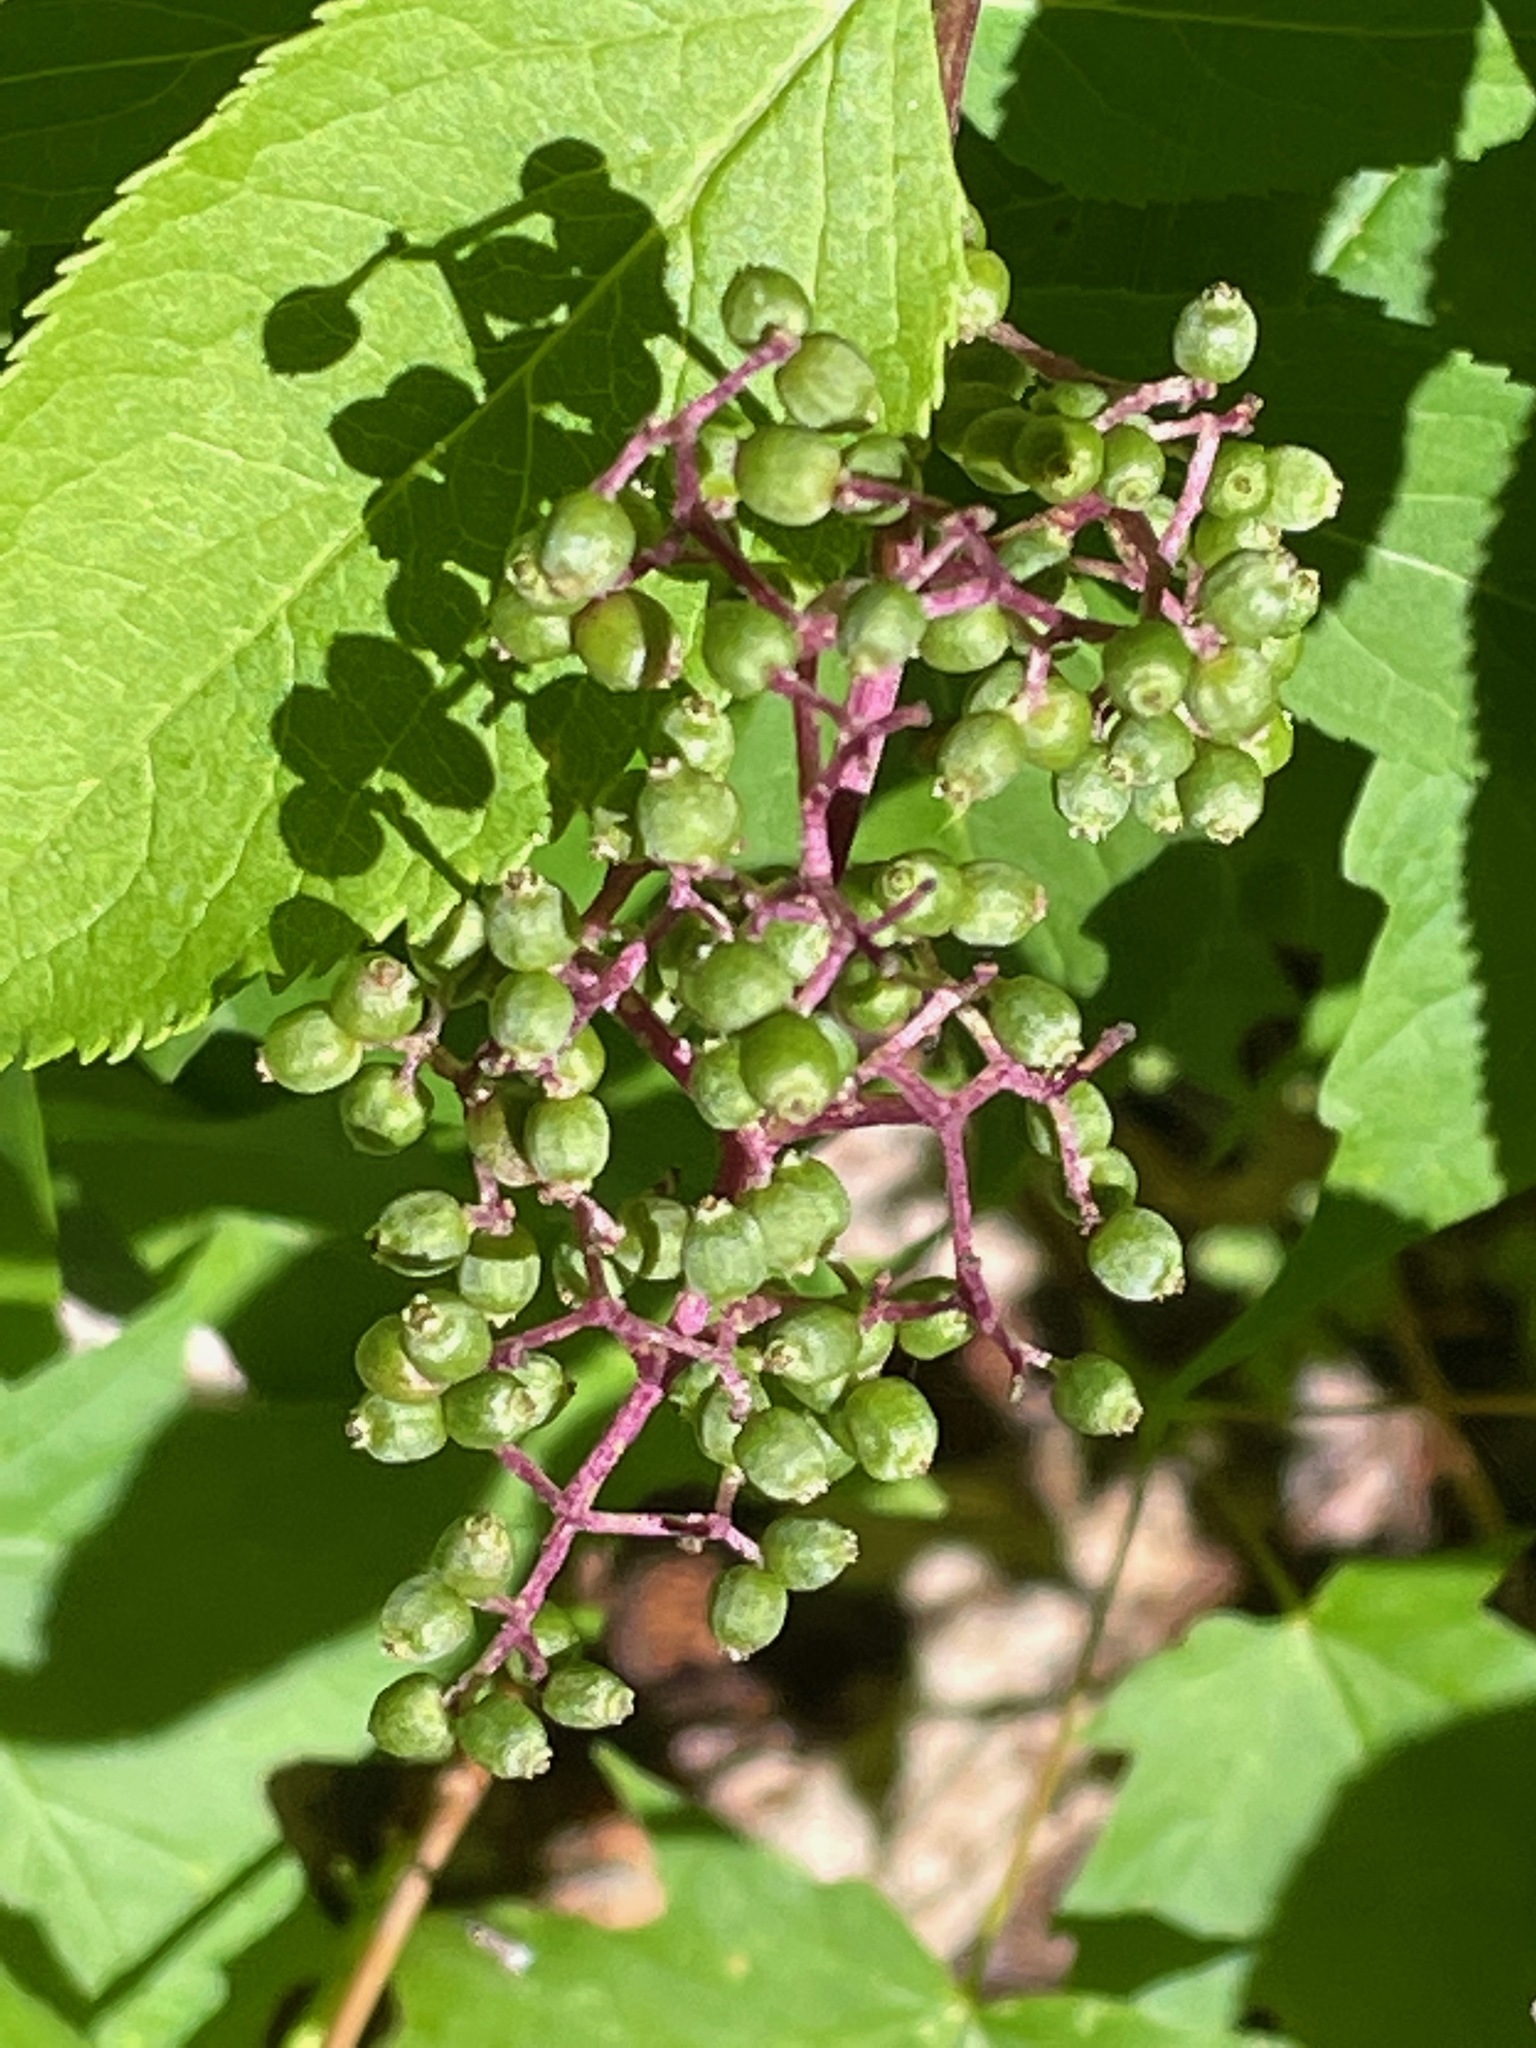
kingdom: Plantae
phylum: Tracheophyta
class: Magnoliopsida
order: Dipsacales
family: Viburnaceae
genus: Sambucus
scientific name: Sambucus racemosa
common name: Red-berried elder
